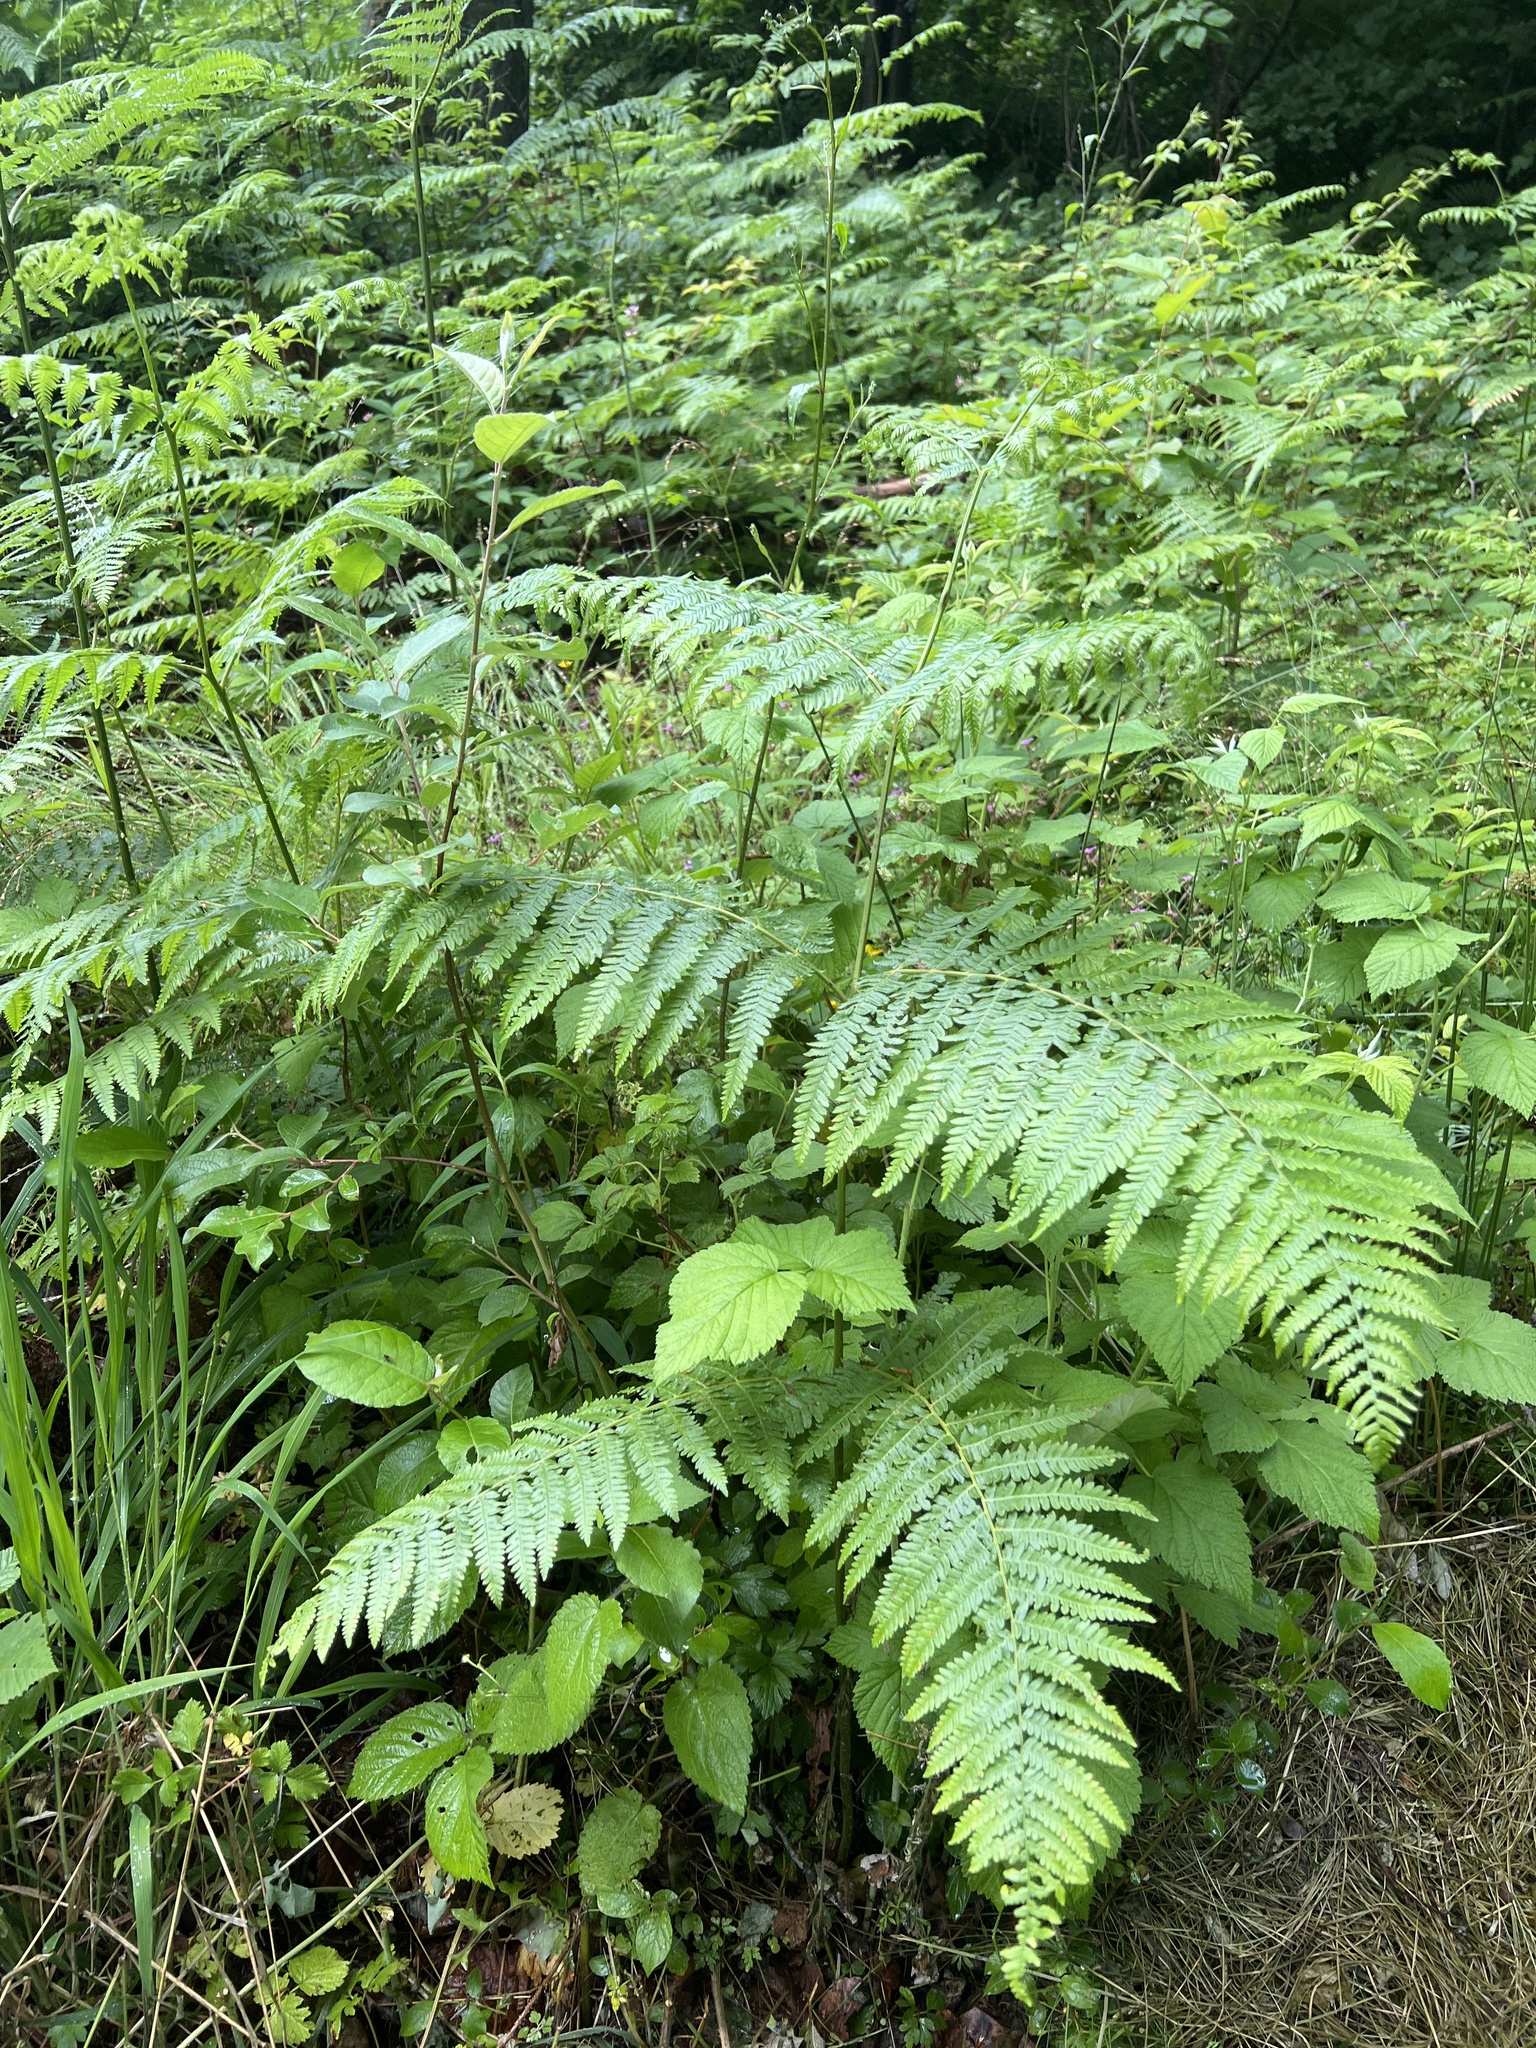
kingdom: Plantae
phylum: Tracheophyta
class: Polypodiopsida
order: Polypodiales
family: Dennstaedtiaceae
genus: Pteridium
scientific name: Pteridium aquilinum
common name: Bracken
